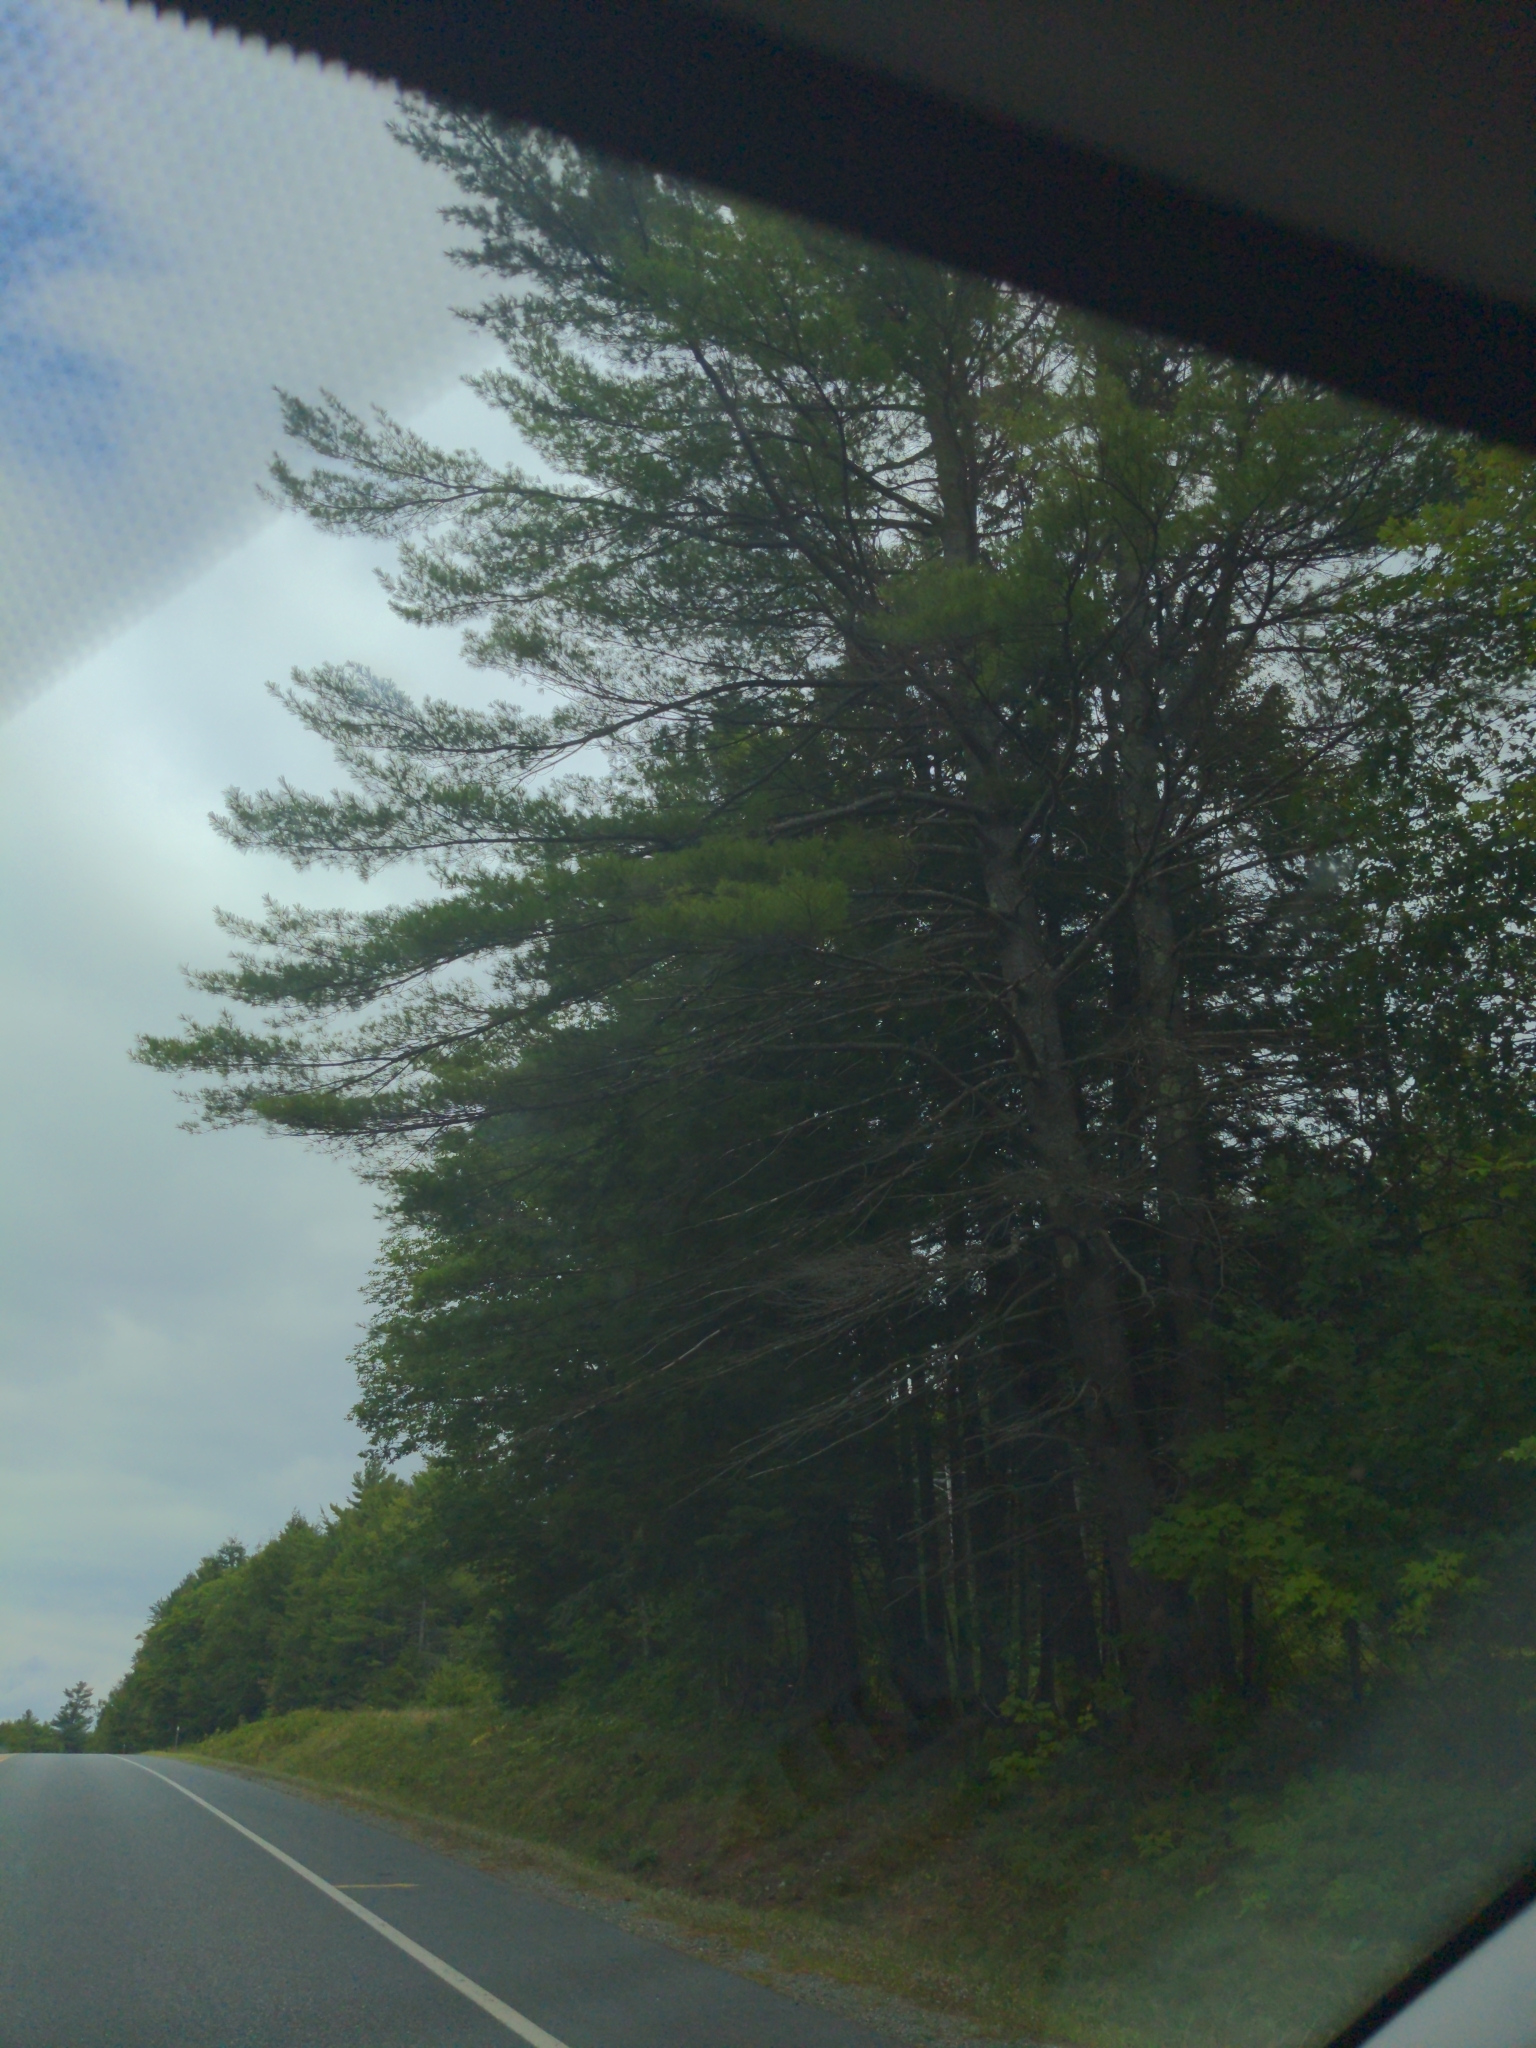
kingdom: Plantae
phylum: Tracheophyta
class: Pinopsida
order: Pinales
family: Pinaceae
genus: Pinus
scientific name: Pinus strobus
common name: Weymouth pine
